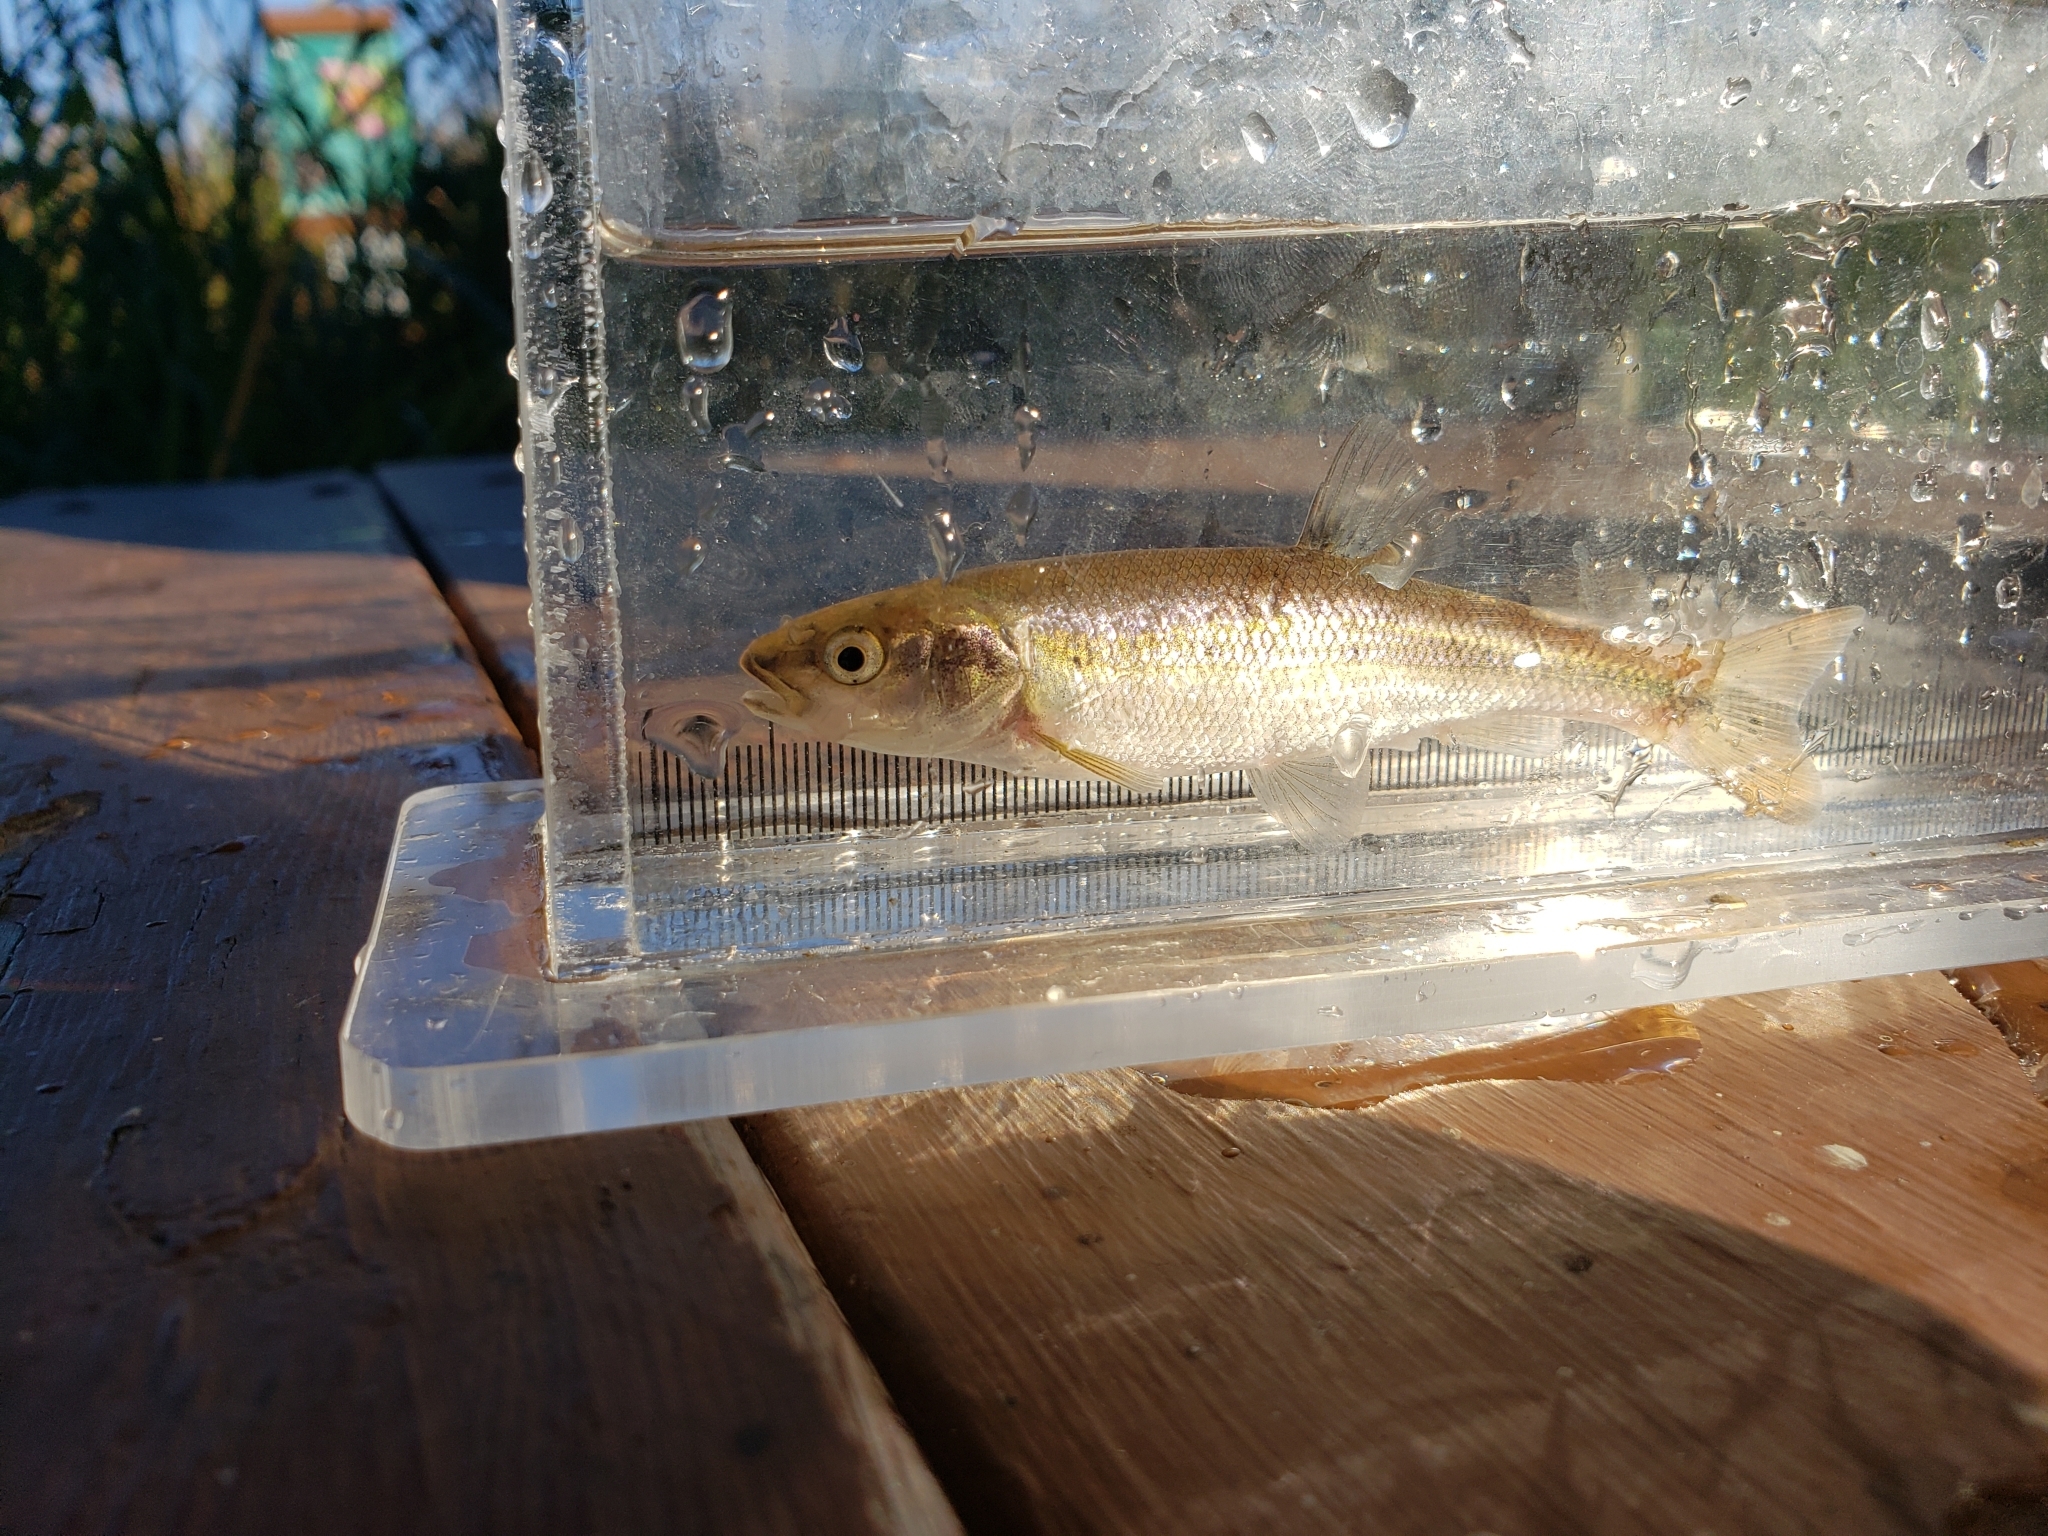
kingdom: Animalia
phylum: Chordata
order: Cypriniformes
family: Cyprinidae
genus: Semotilus
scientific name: Semotilus atromaculatus
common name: Creek chub
